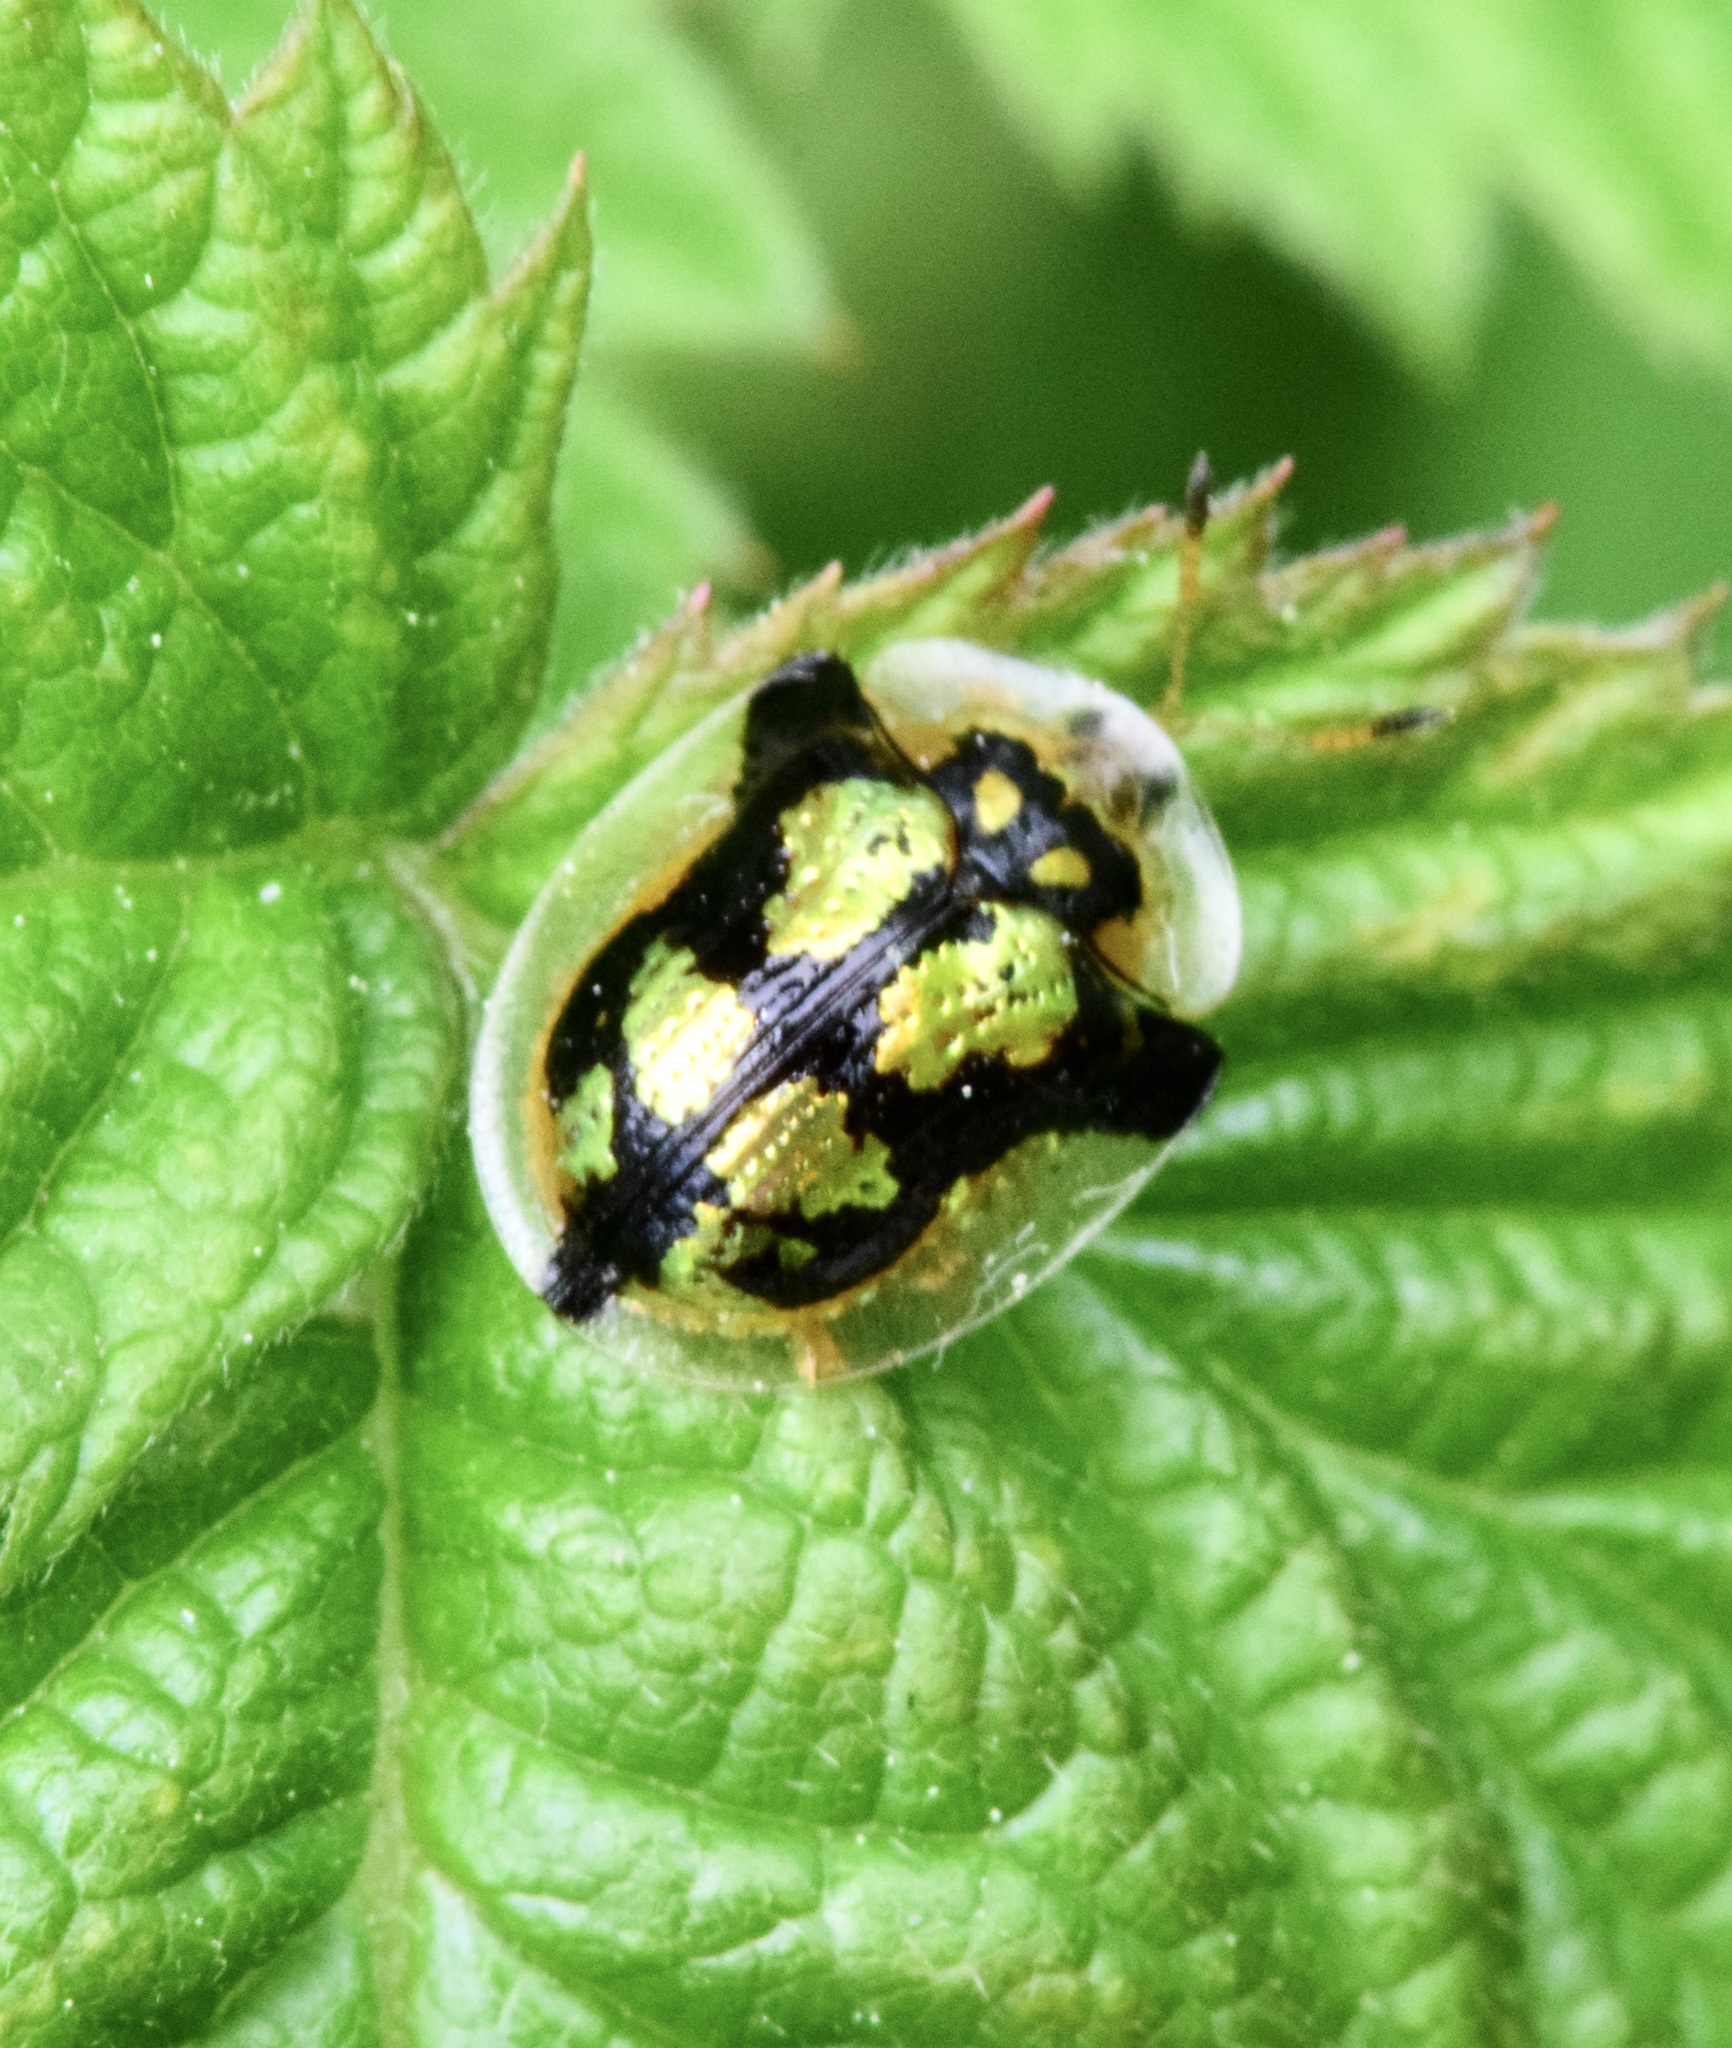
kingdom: Animalia
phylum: Arthropoda
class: Insecta
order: Coleoptera
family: Chrysomelidae
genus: Deloyala
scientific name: Deloyala guttata
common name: Mottled tortoise beetle
